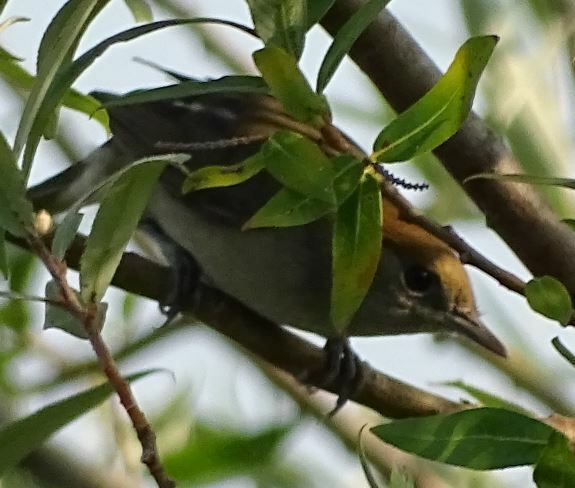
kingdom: Animalia
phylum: Chordata
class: Aves
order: Passeriformes
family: Sylviidae
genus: Sylvia
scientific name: Sylvia atricapilla
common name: Eurasian blackcap
